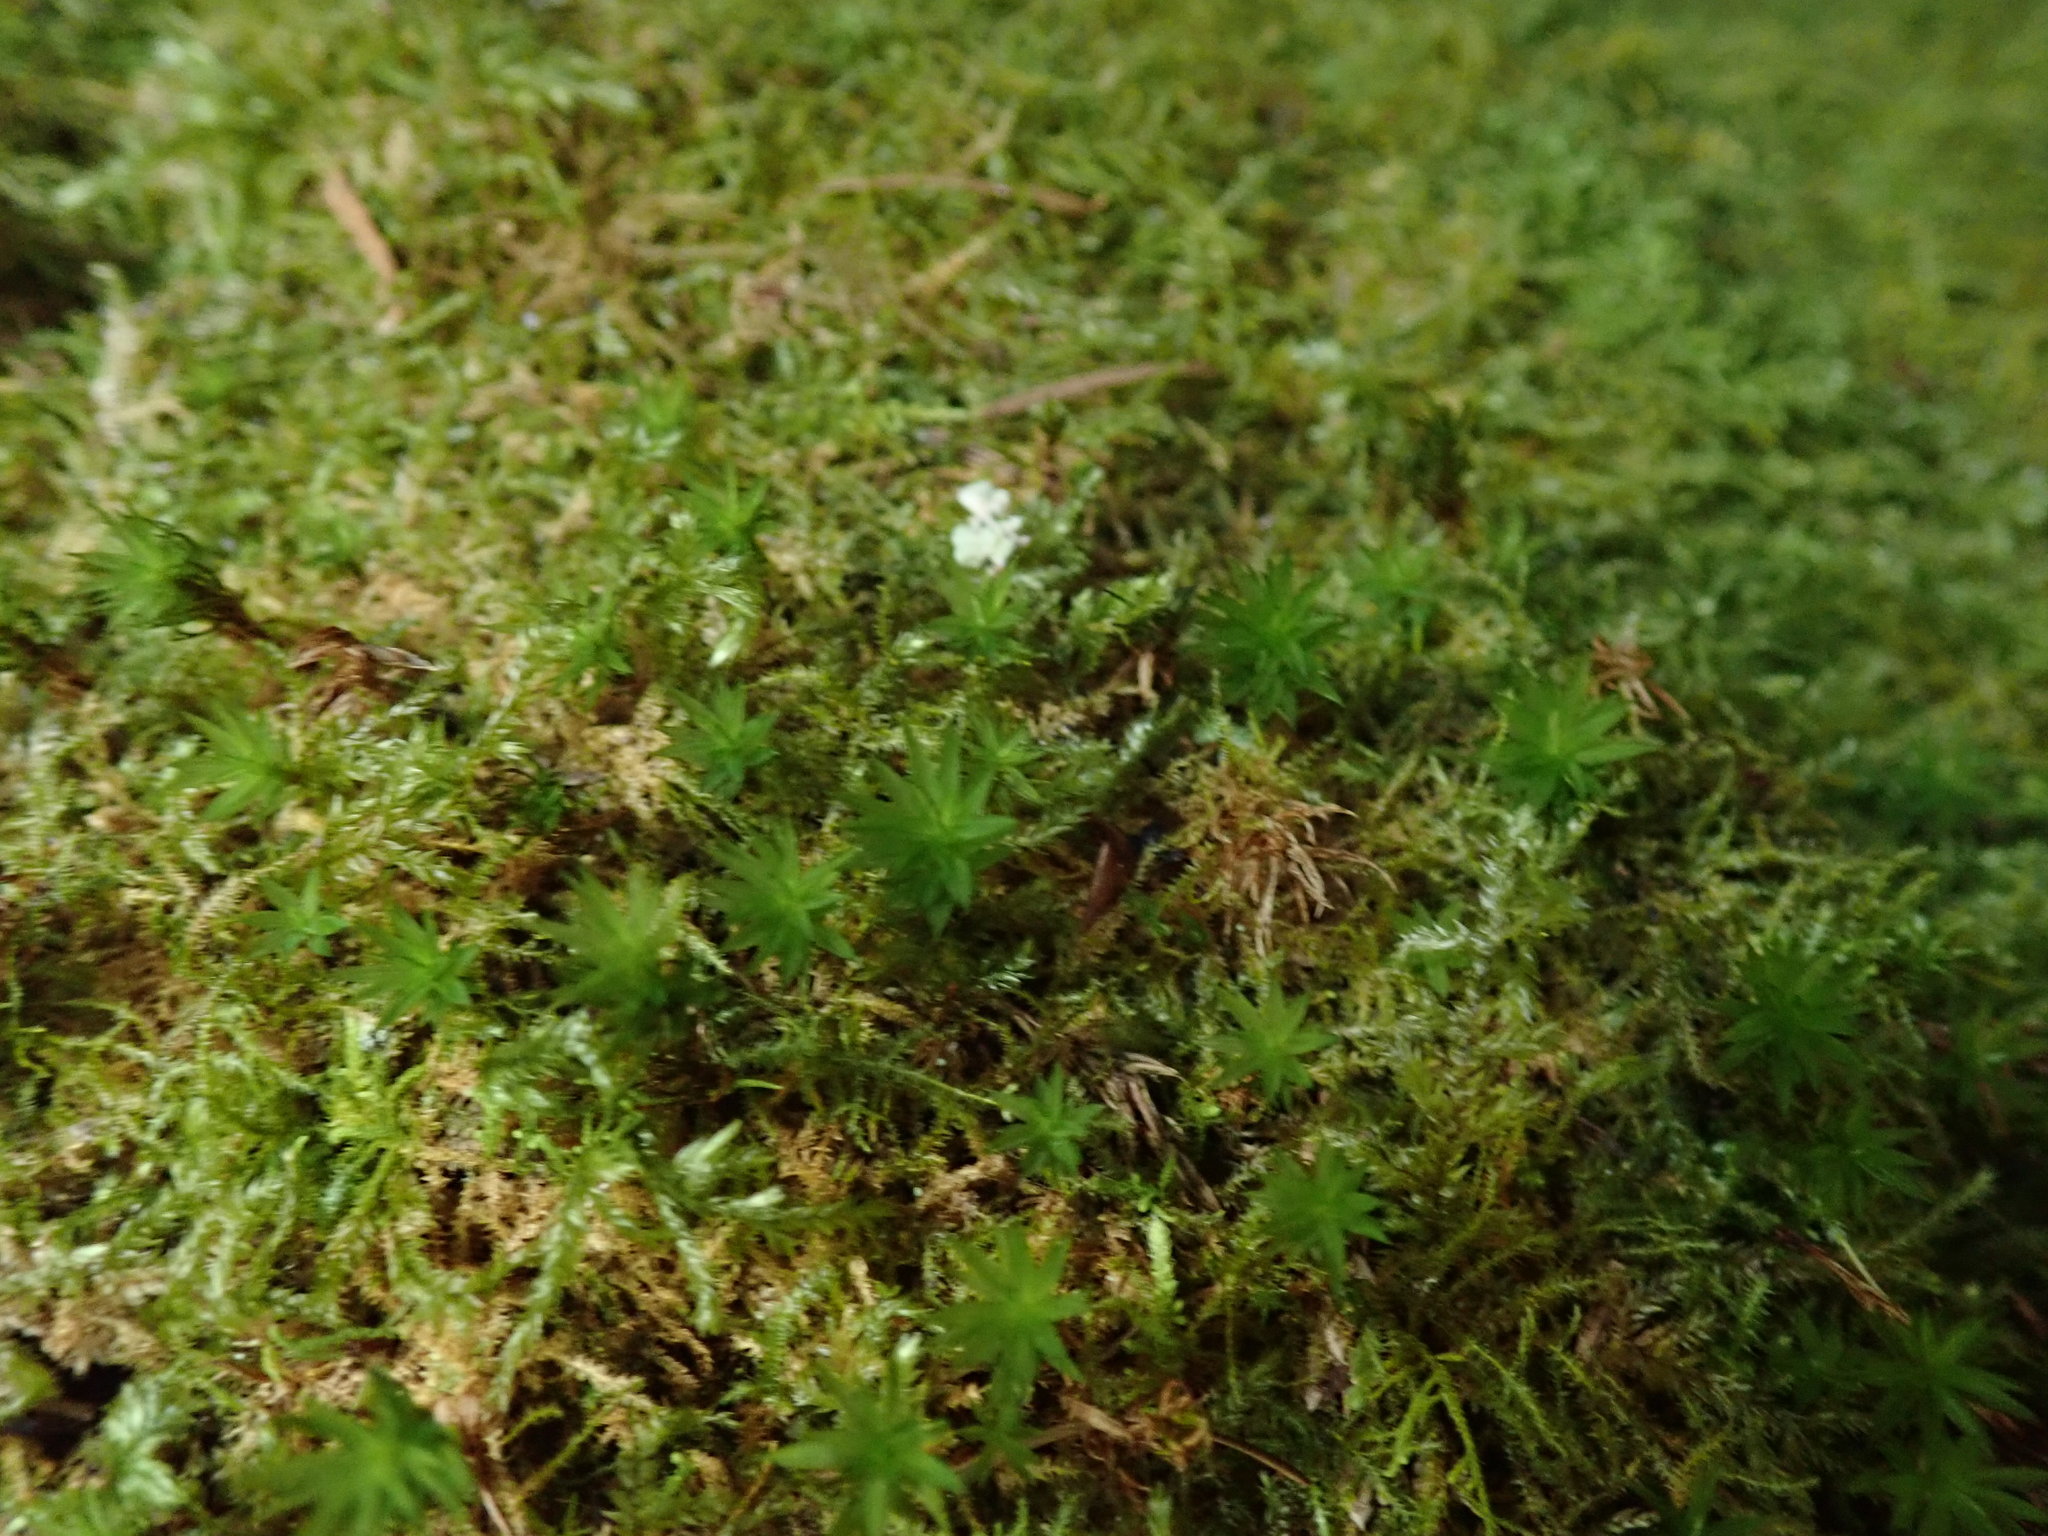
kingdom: Plantae
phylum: Bryophyta
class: Bryopsida
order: Timmiales
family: Timmiaceae
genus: Timmia
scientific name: Timmia austriaca
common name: Austrian timmia
